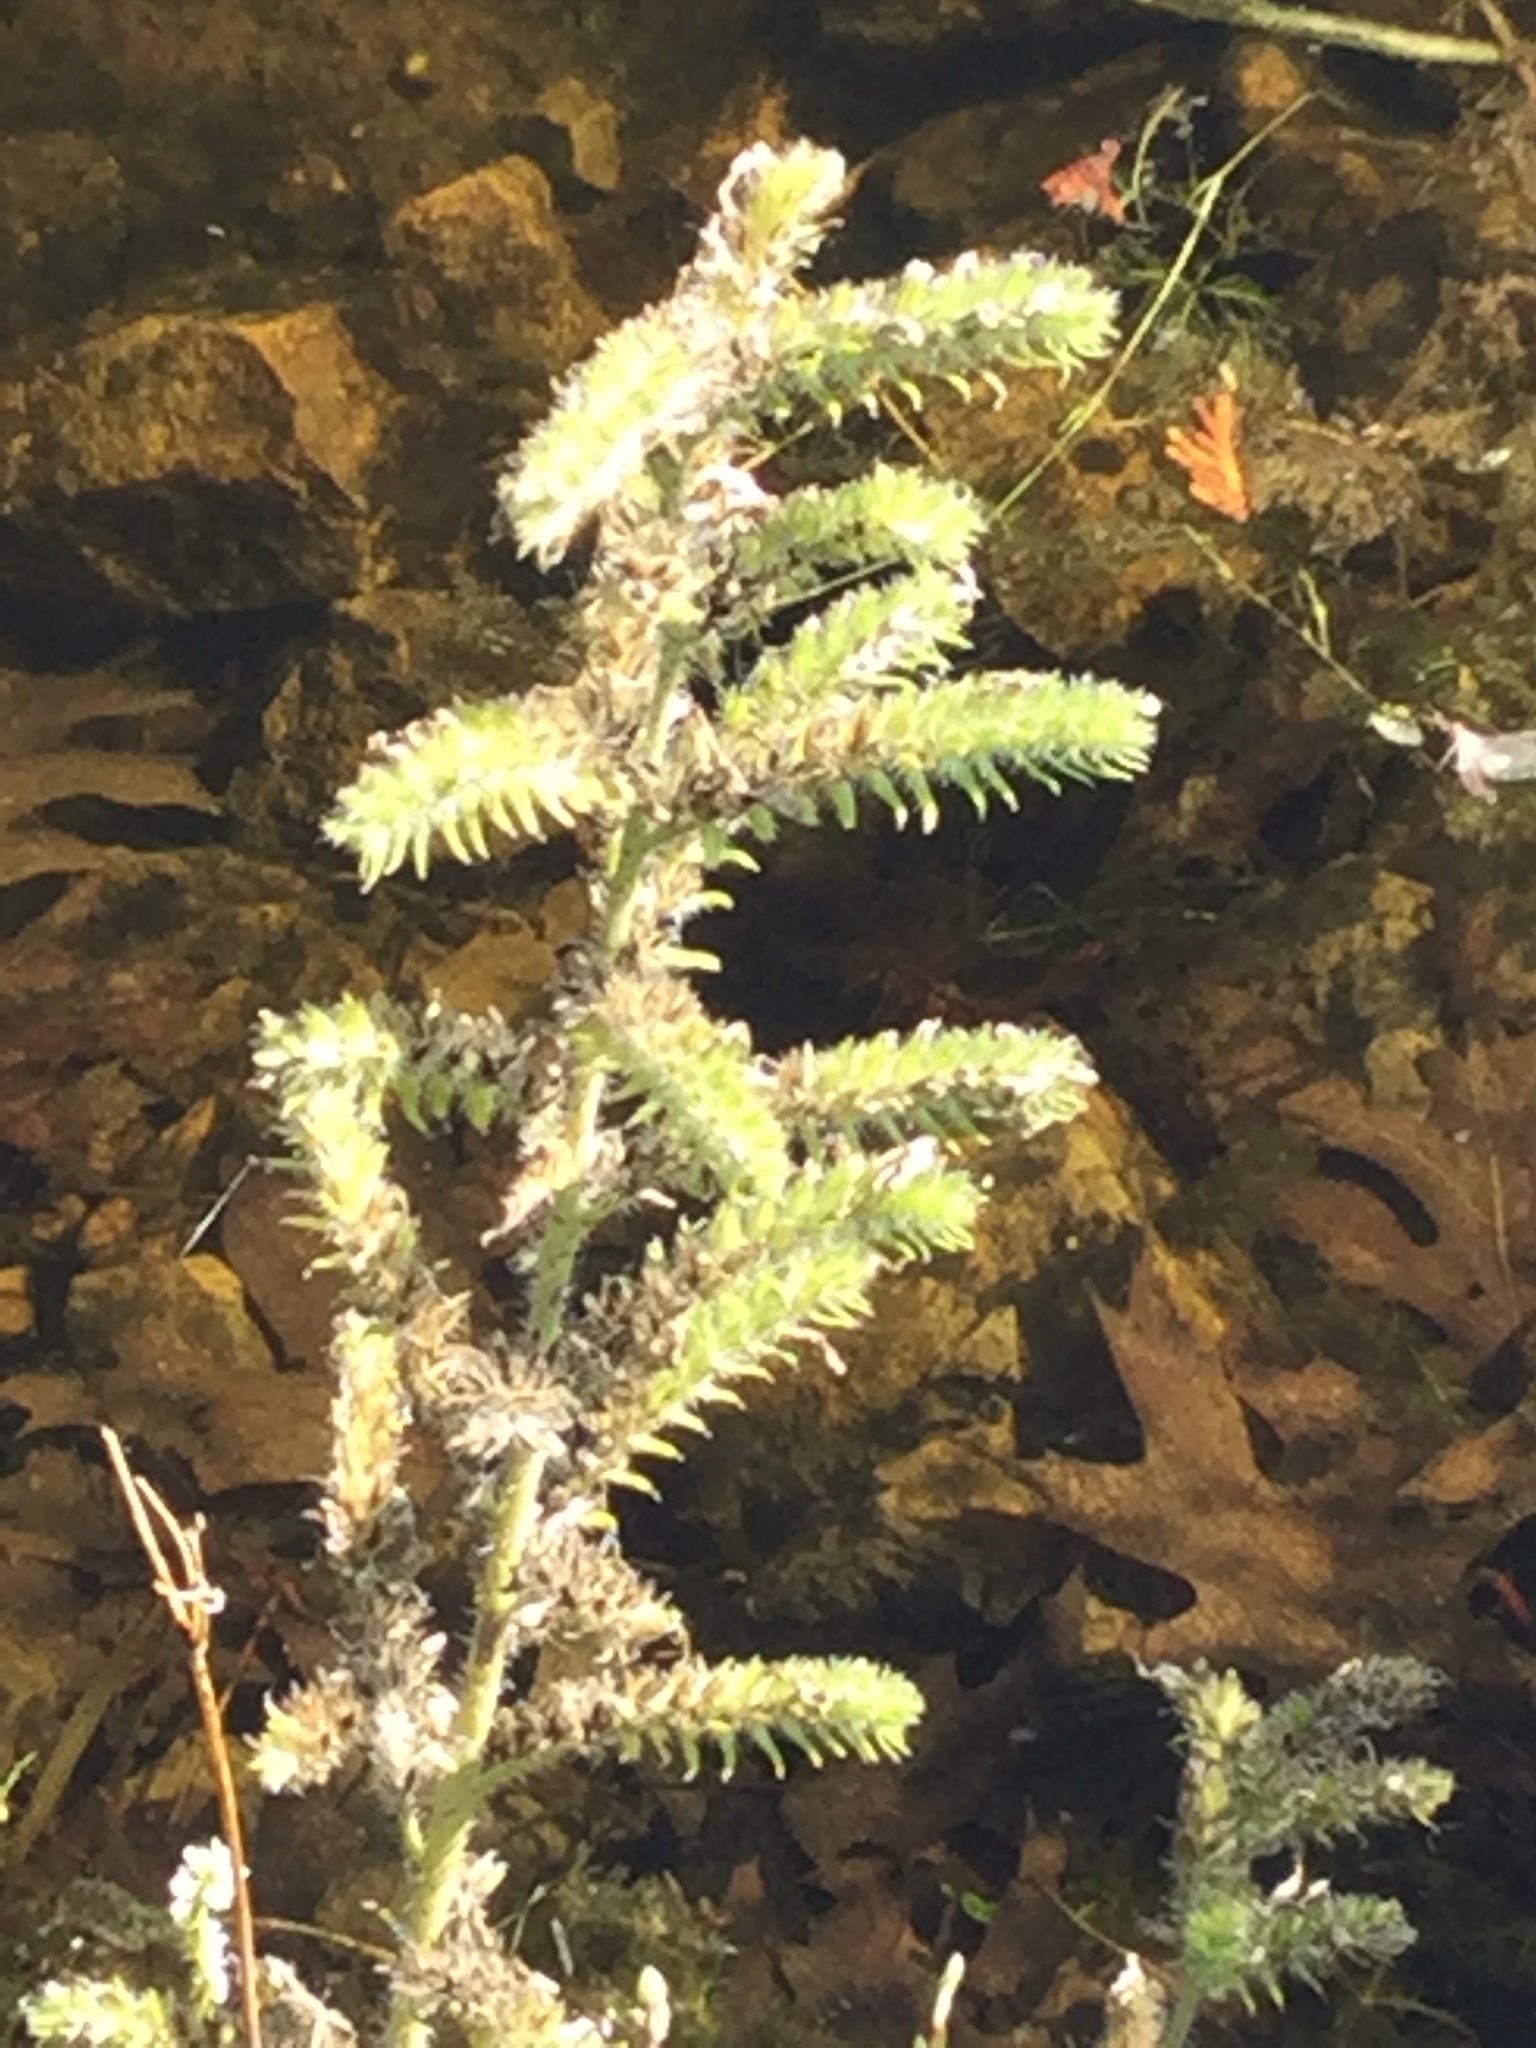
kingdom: Plantae
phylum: Tracheophyta
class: Magnoliopsida
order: Boraginales
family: Boraginaceae
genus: Echium
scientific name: Echium vulgare
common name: Common viper's bugloss
